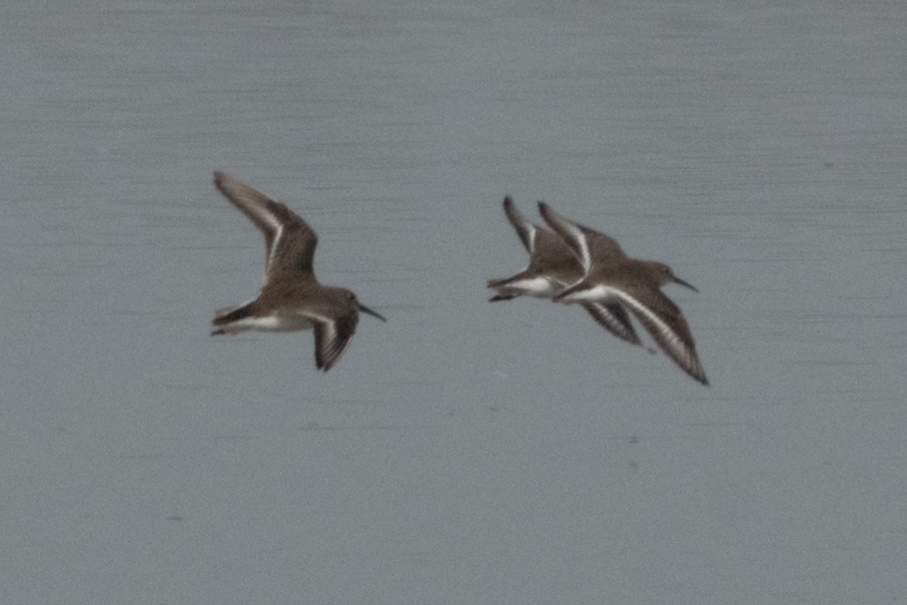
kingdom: Animalia
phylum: Chordata
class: Aves
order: Charadriiformes
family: Scolopacidae
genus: Calidris
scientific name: Calidris alpina
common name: Dunlin
